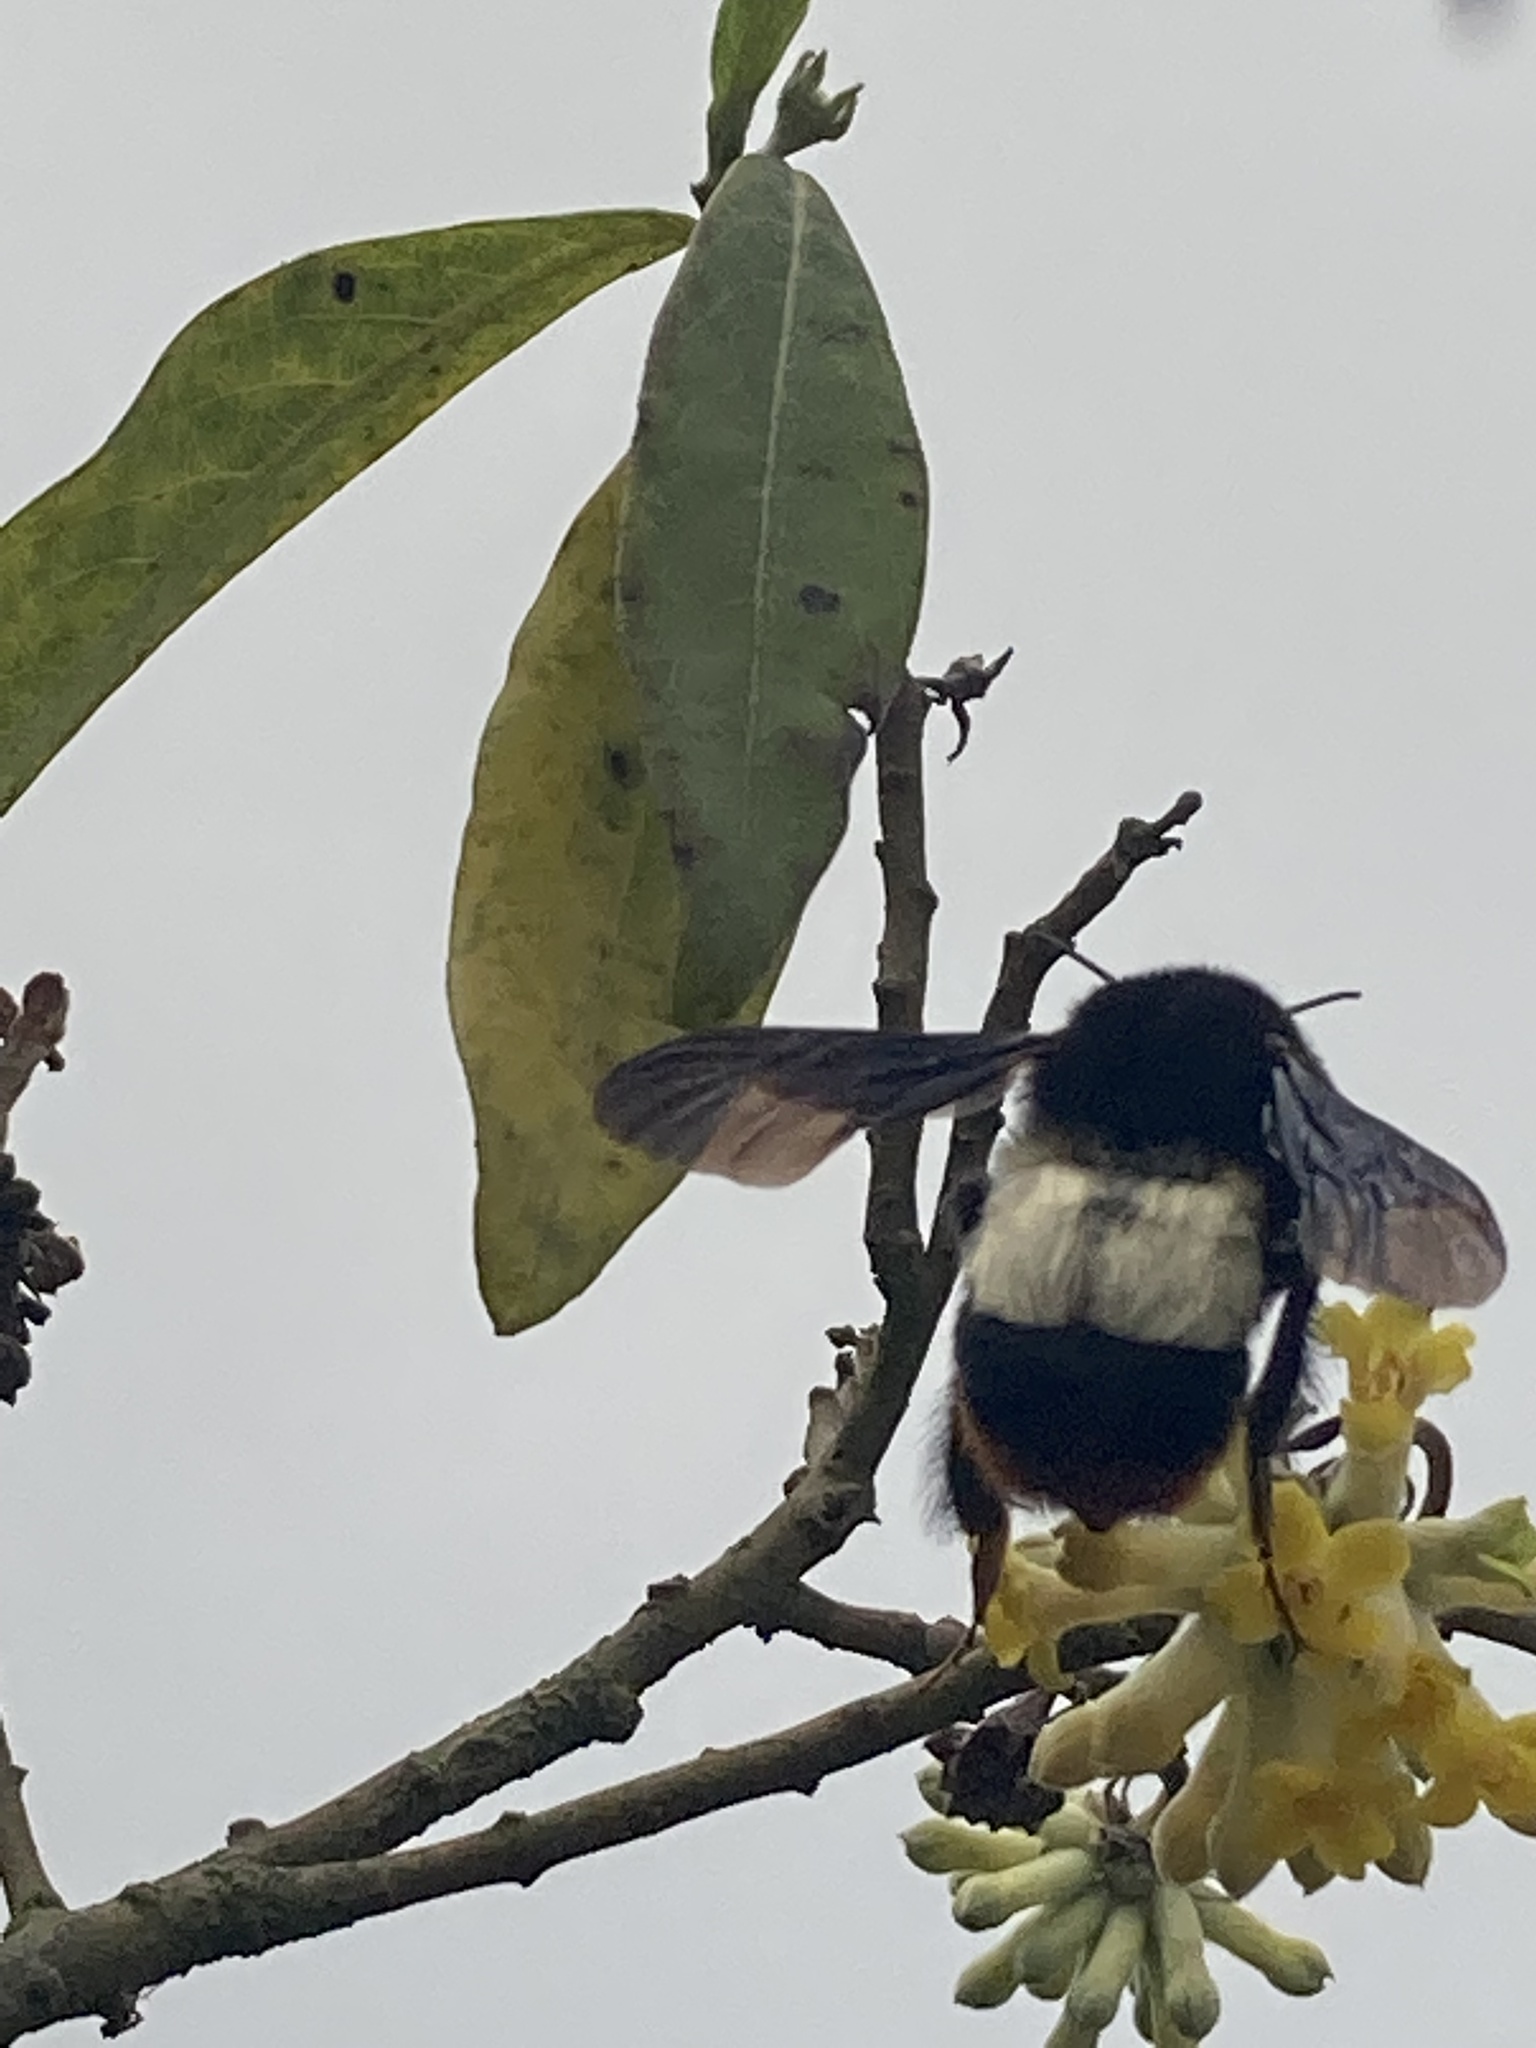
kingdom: Animalia
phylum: Arthropoda
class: Insecta
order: Hymenoptera
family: Apidae
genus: Bombus
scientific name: Bombus trifasciatus
